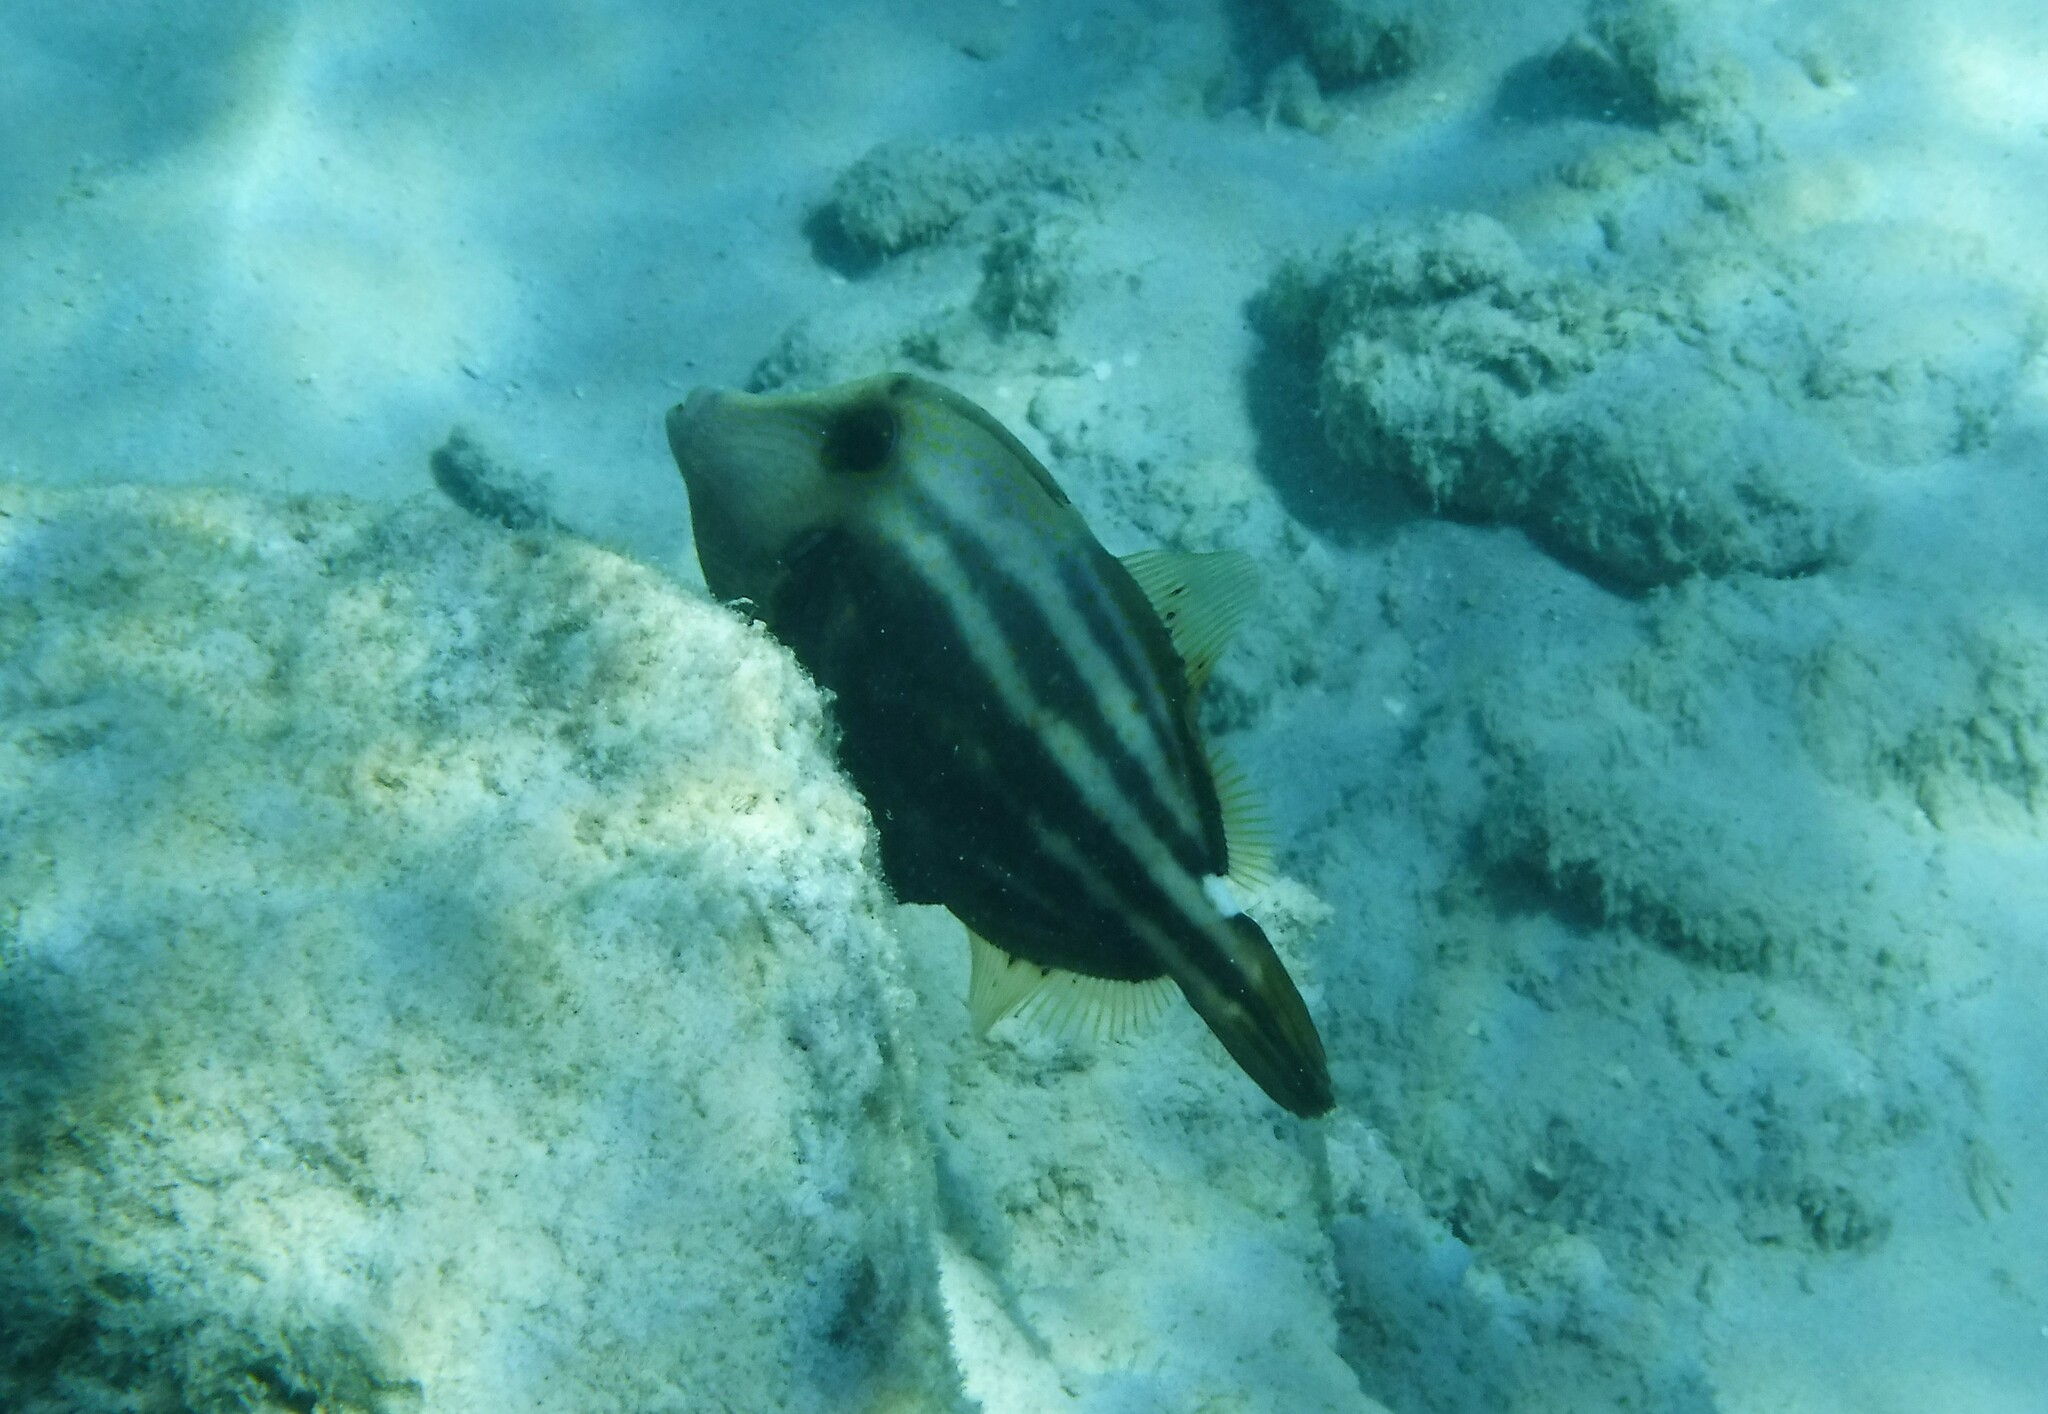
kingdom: Animalia
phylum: Chordata
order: Tetraodontiformes
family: Monacanthidae
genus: Cantherhines
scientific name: Cantherhines pullus
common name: Orangespotted filefish
